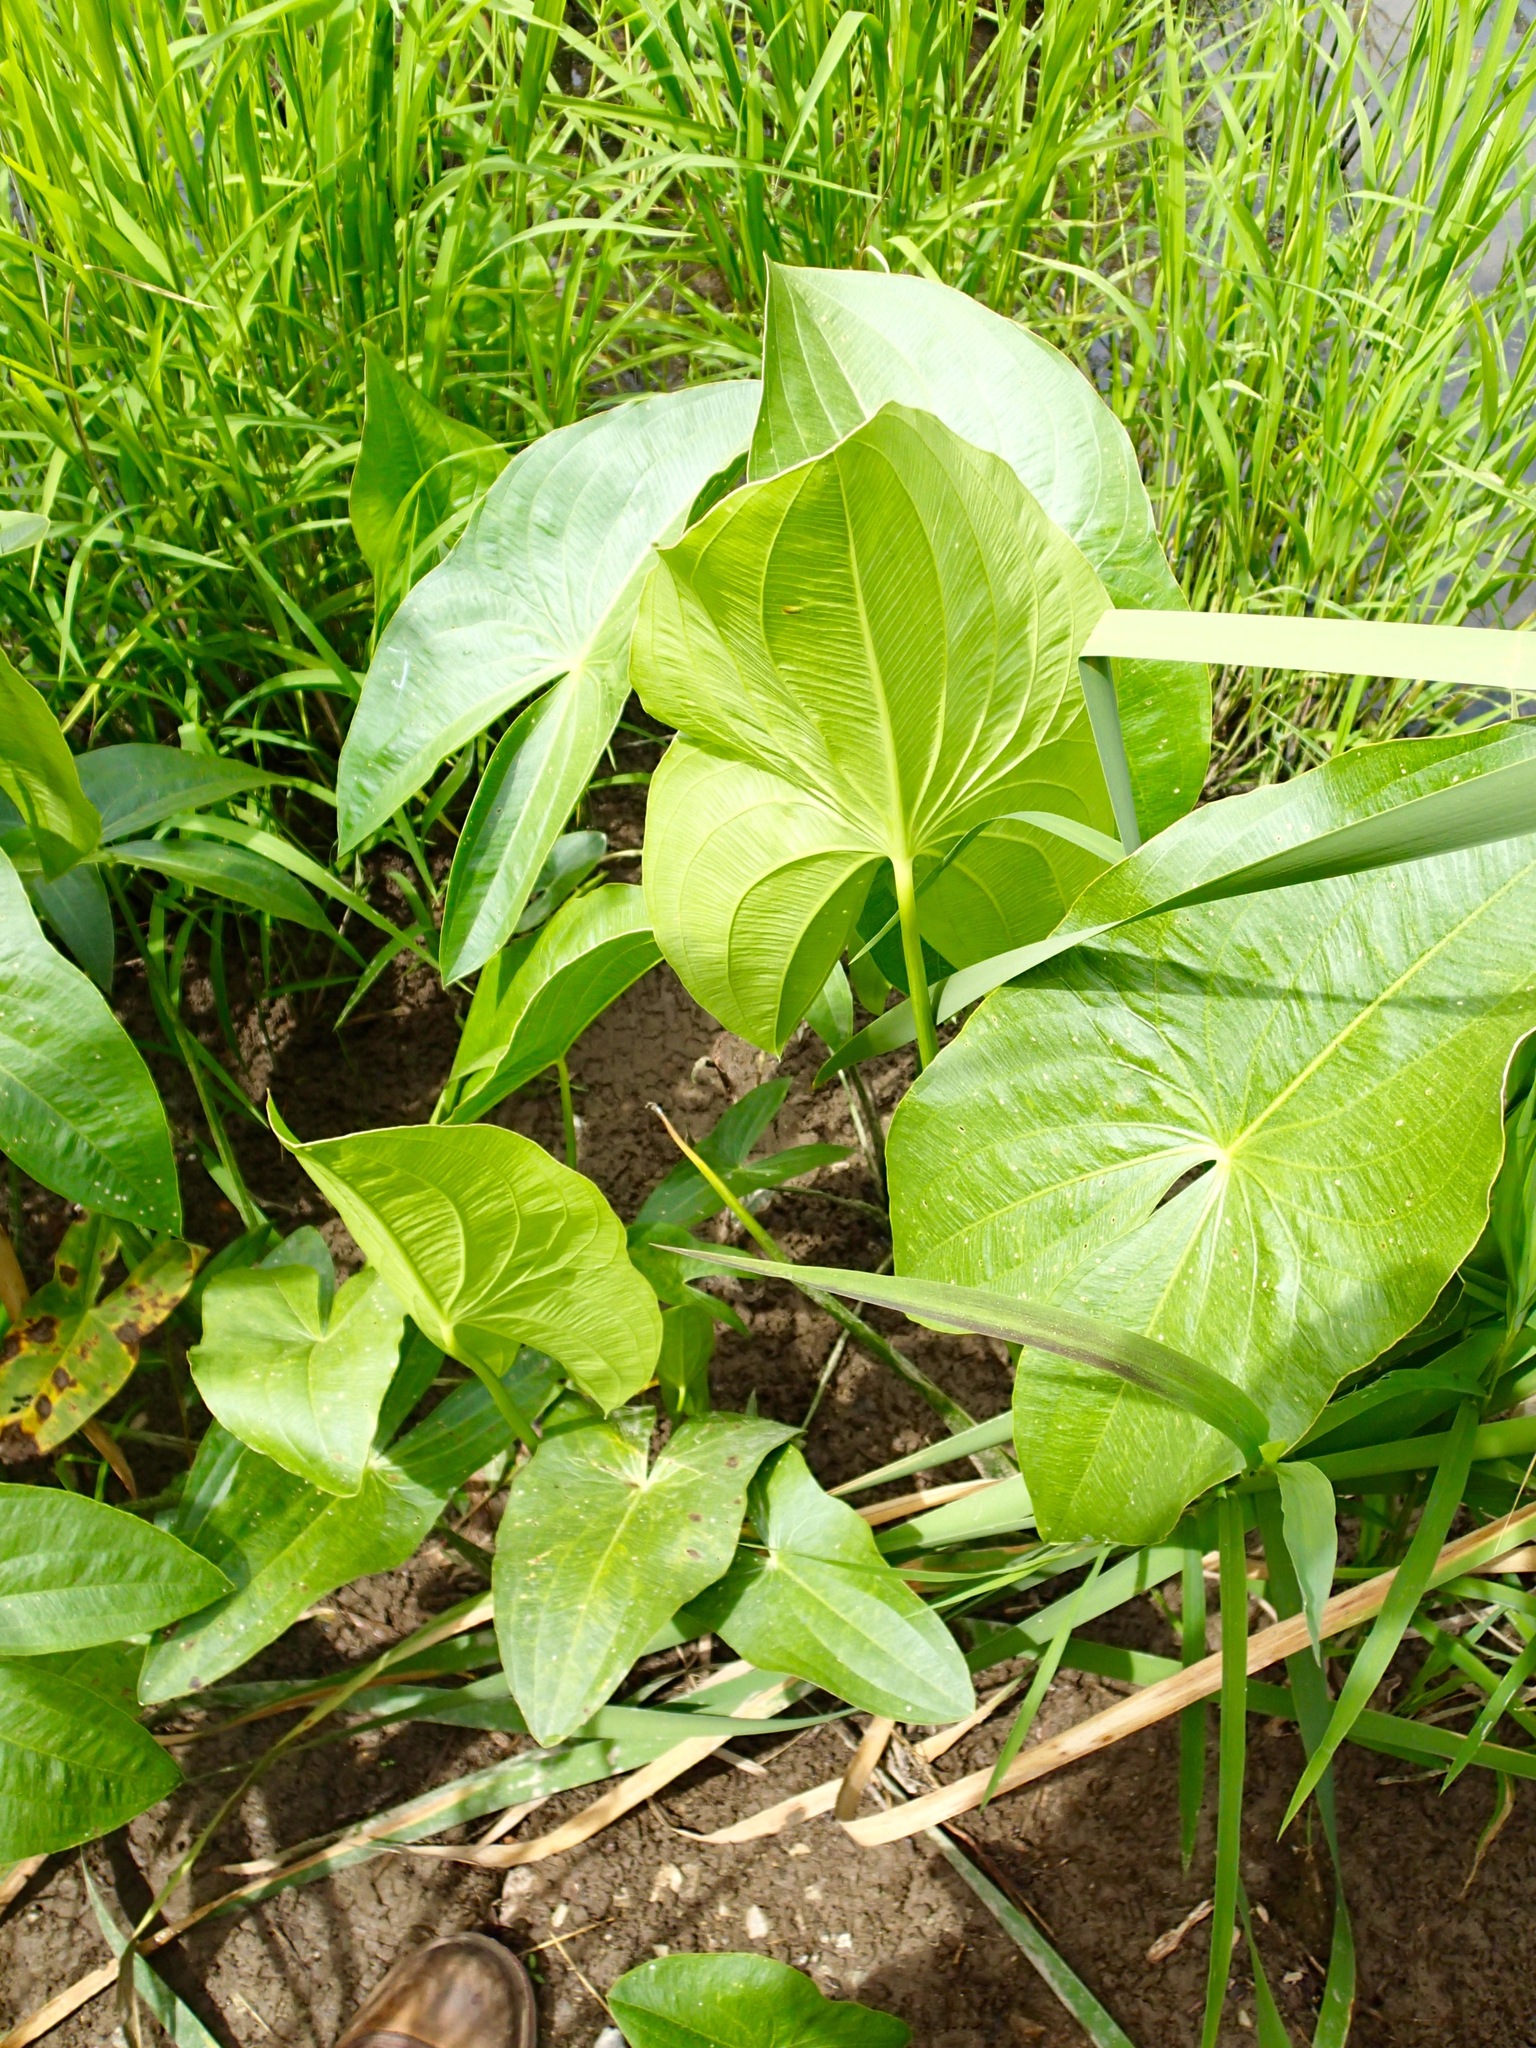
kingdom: Plantae
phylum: Tracheophyta
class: Liliopsida
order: Alismatales
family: Alismataceae
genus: Sagittaria
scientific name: Sagittaria
